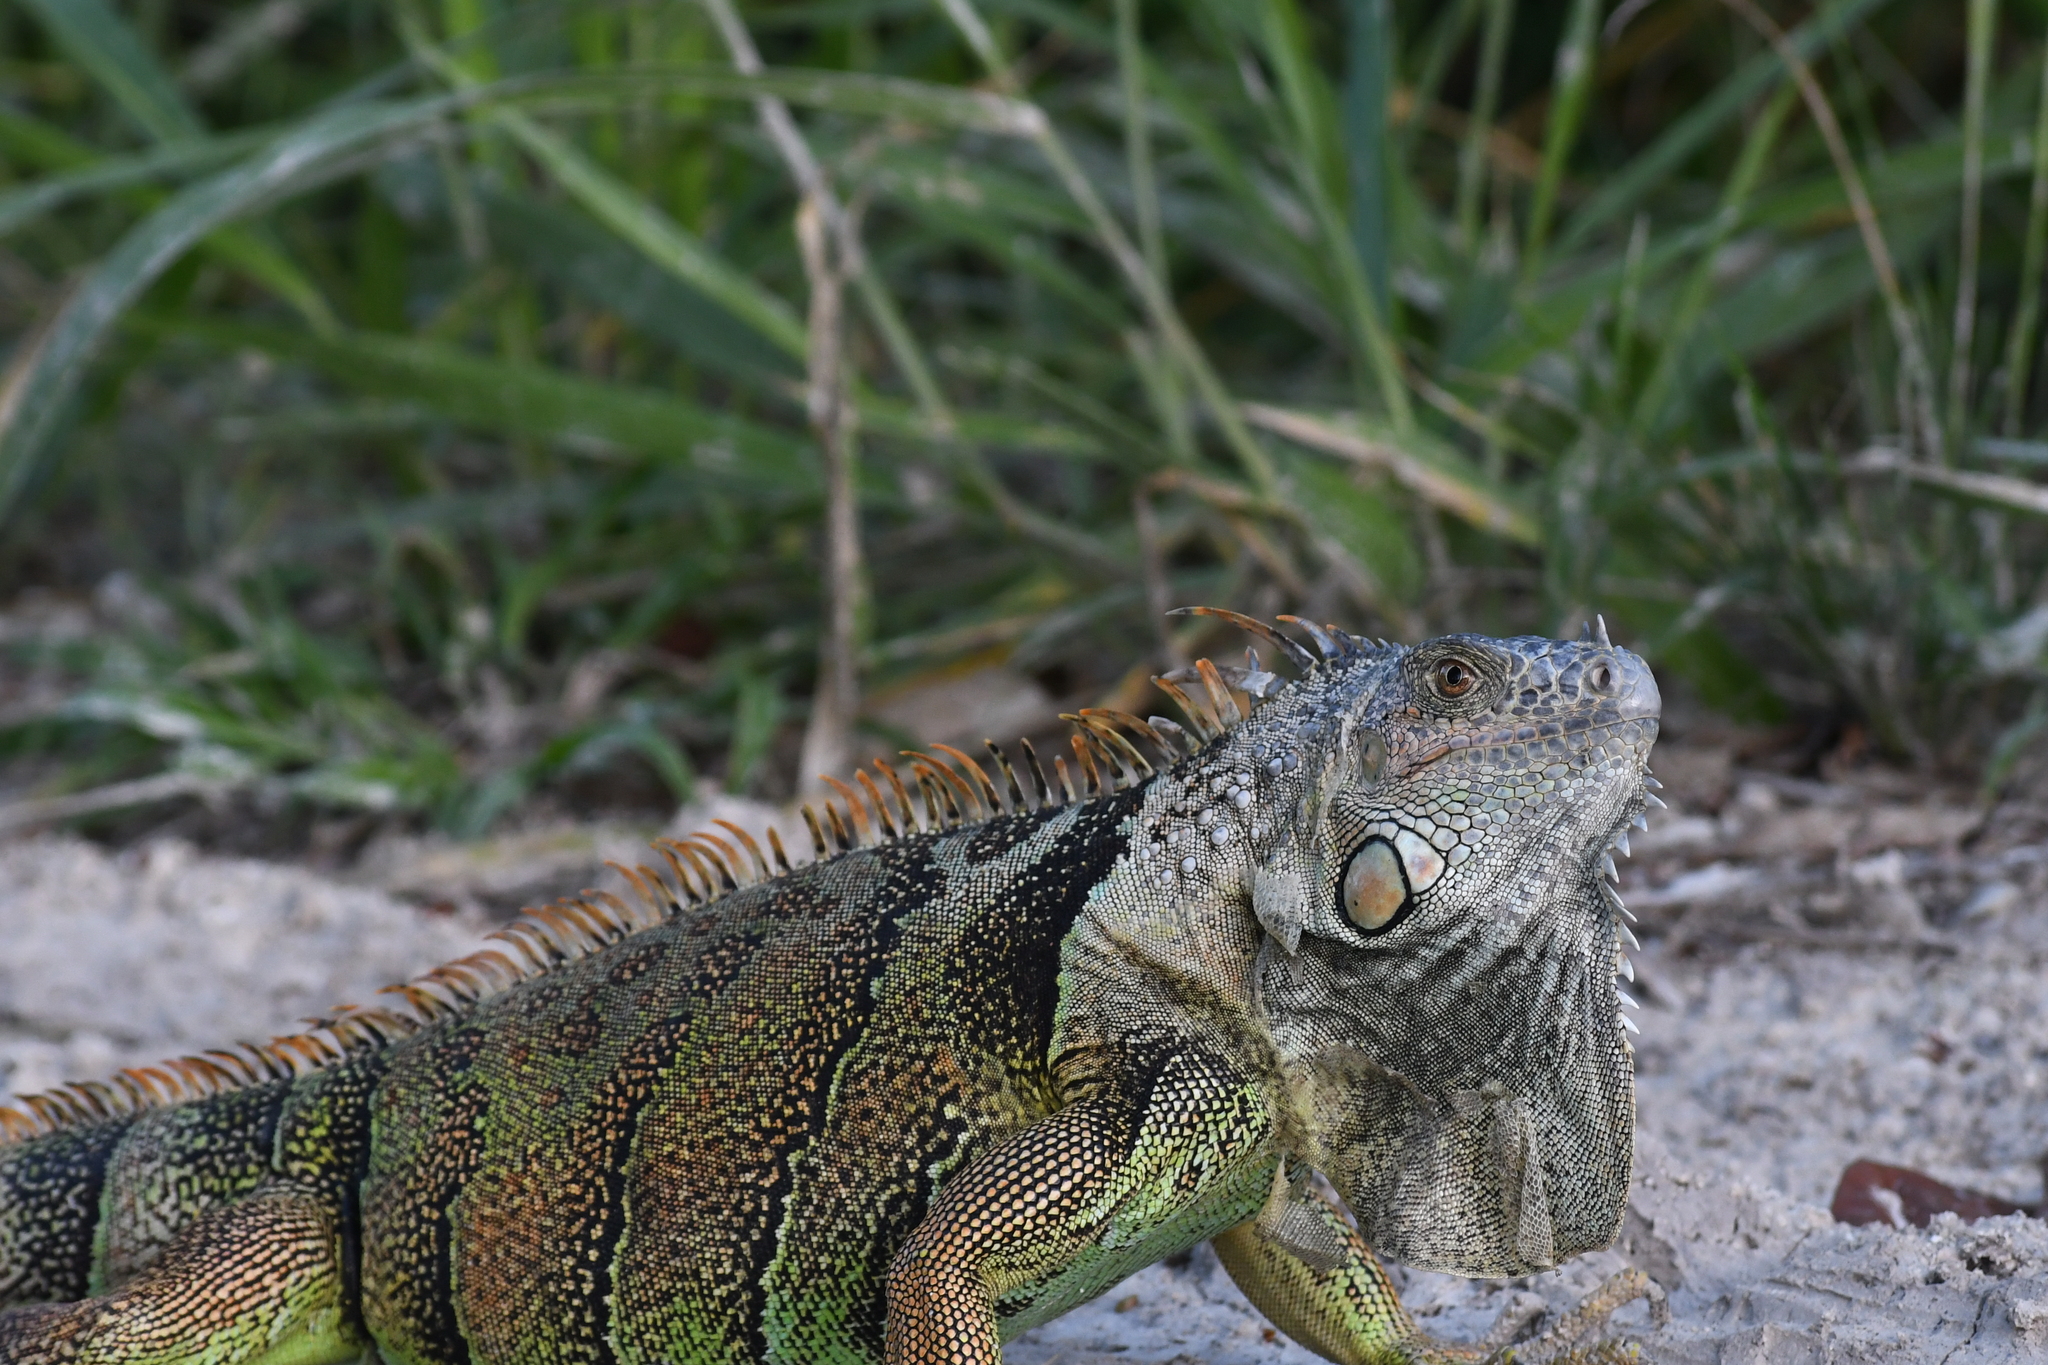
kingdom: Animalia
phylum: Chordata
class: Squamata
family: Iguanidae
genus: Iguana
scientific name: Iguana iguana
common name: Green iguana
